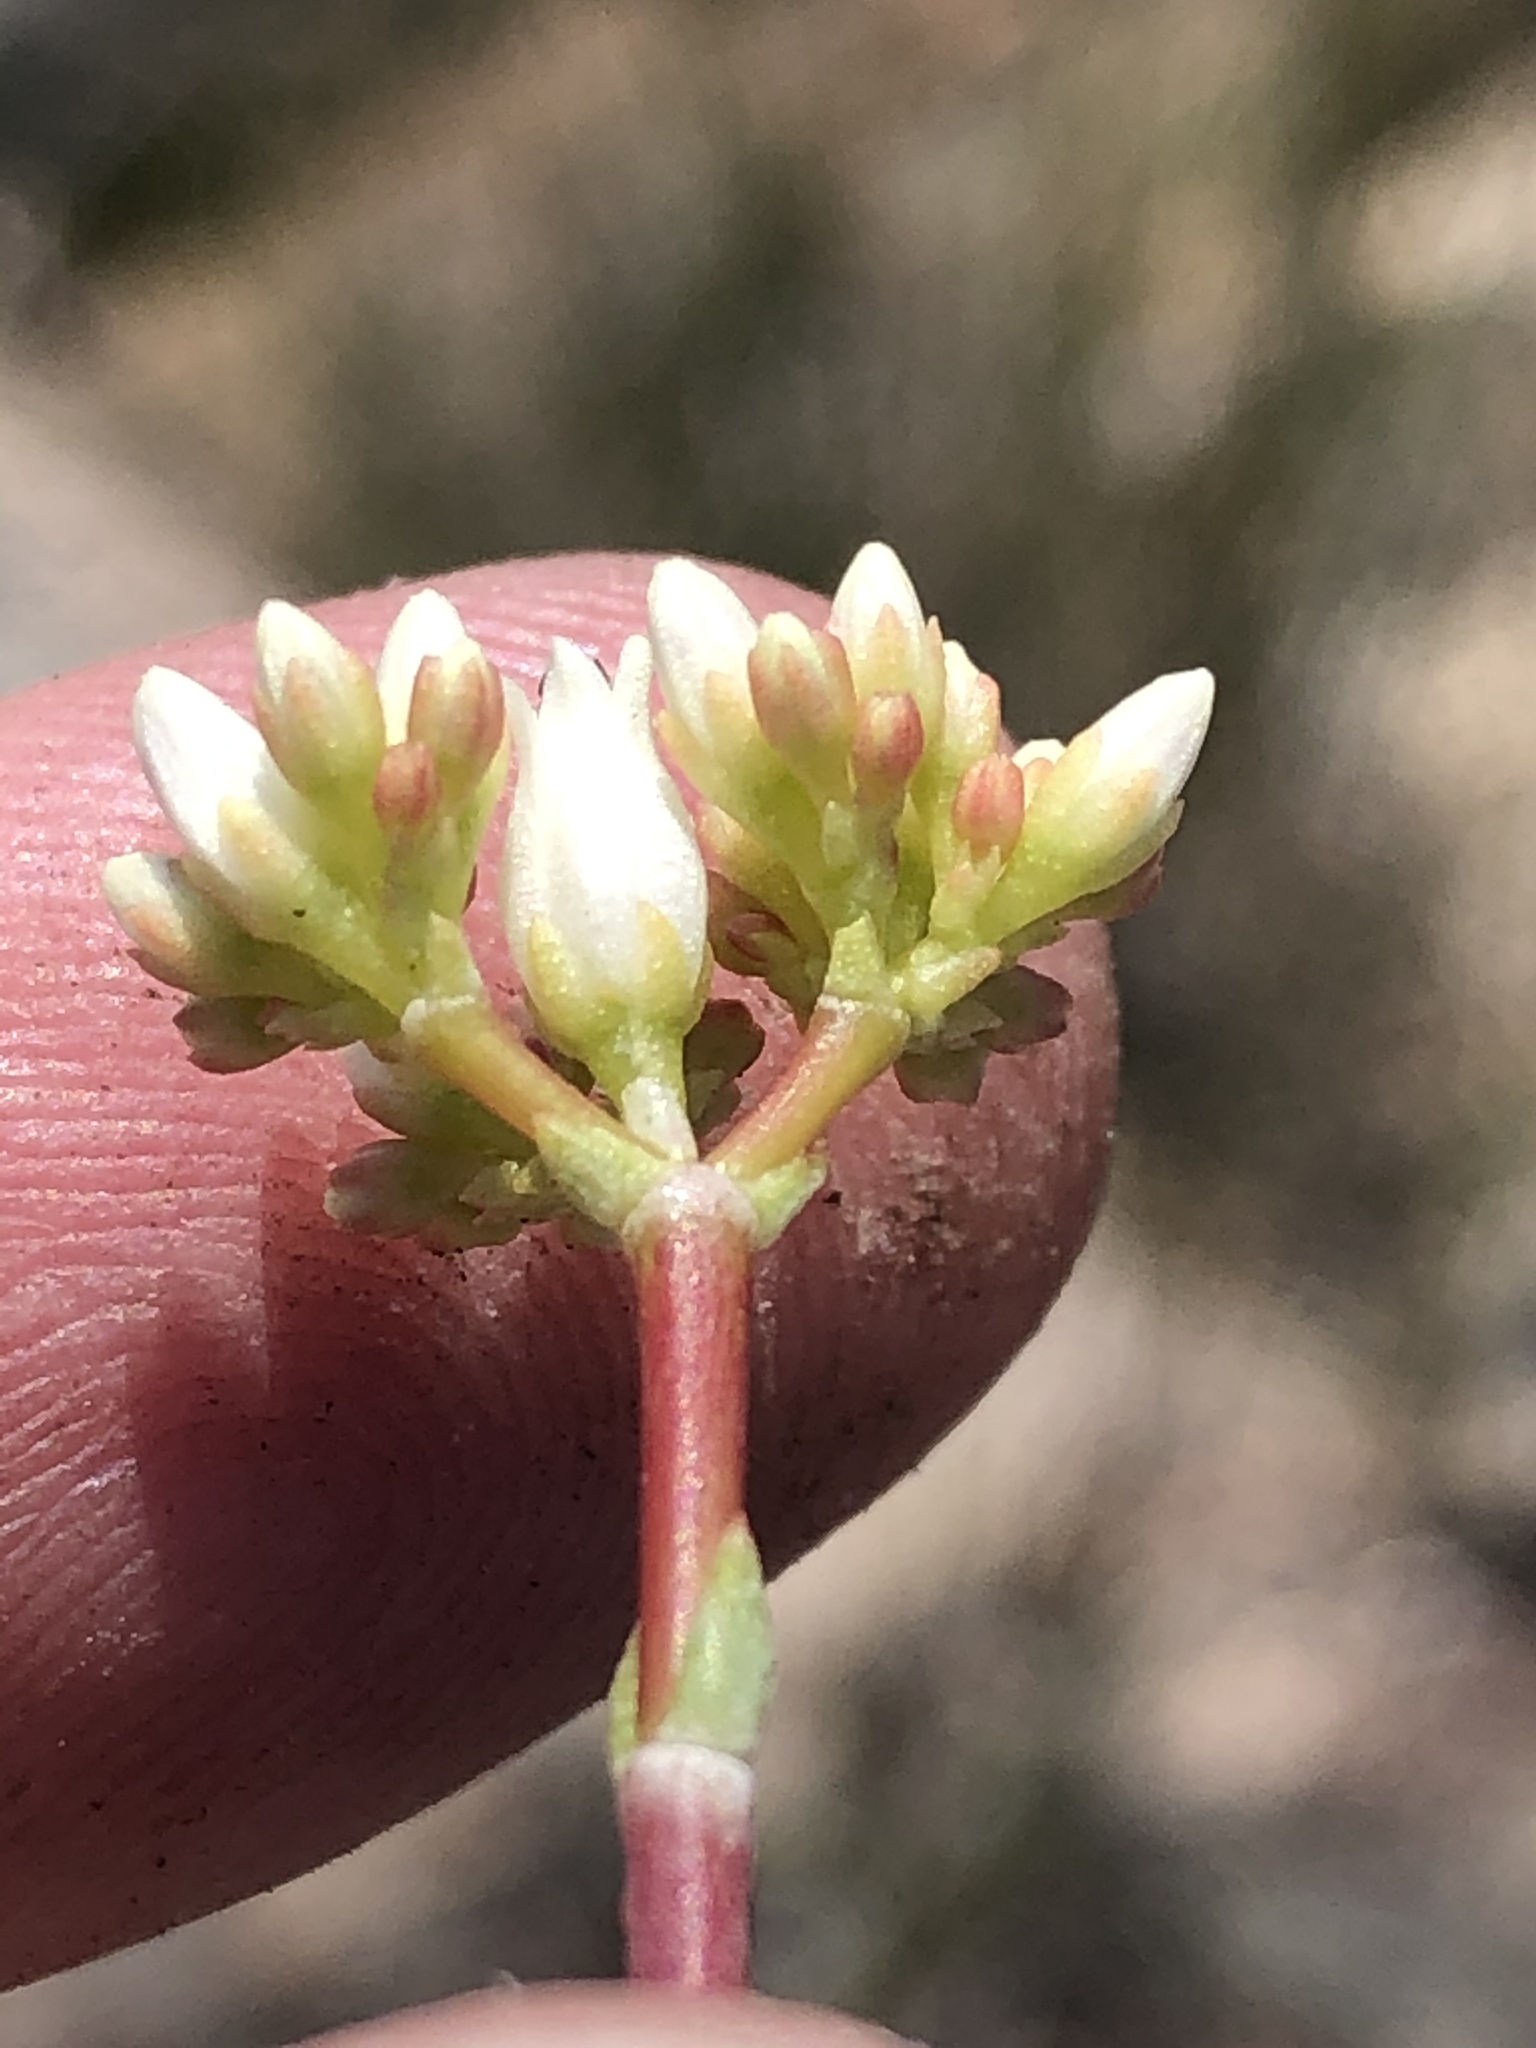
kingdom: Plantae
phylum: Tracheophyta
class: Magnoliopsida
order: Saxifragales
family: Crassulaceae
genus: Crassula
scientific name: Crassula biplanata
